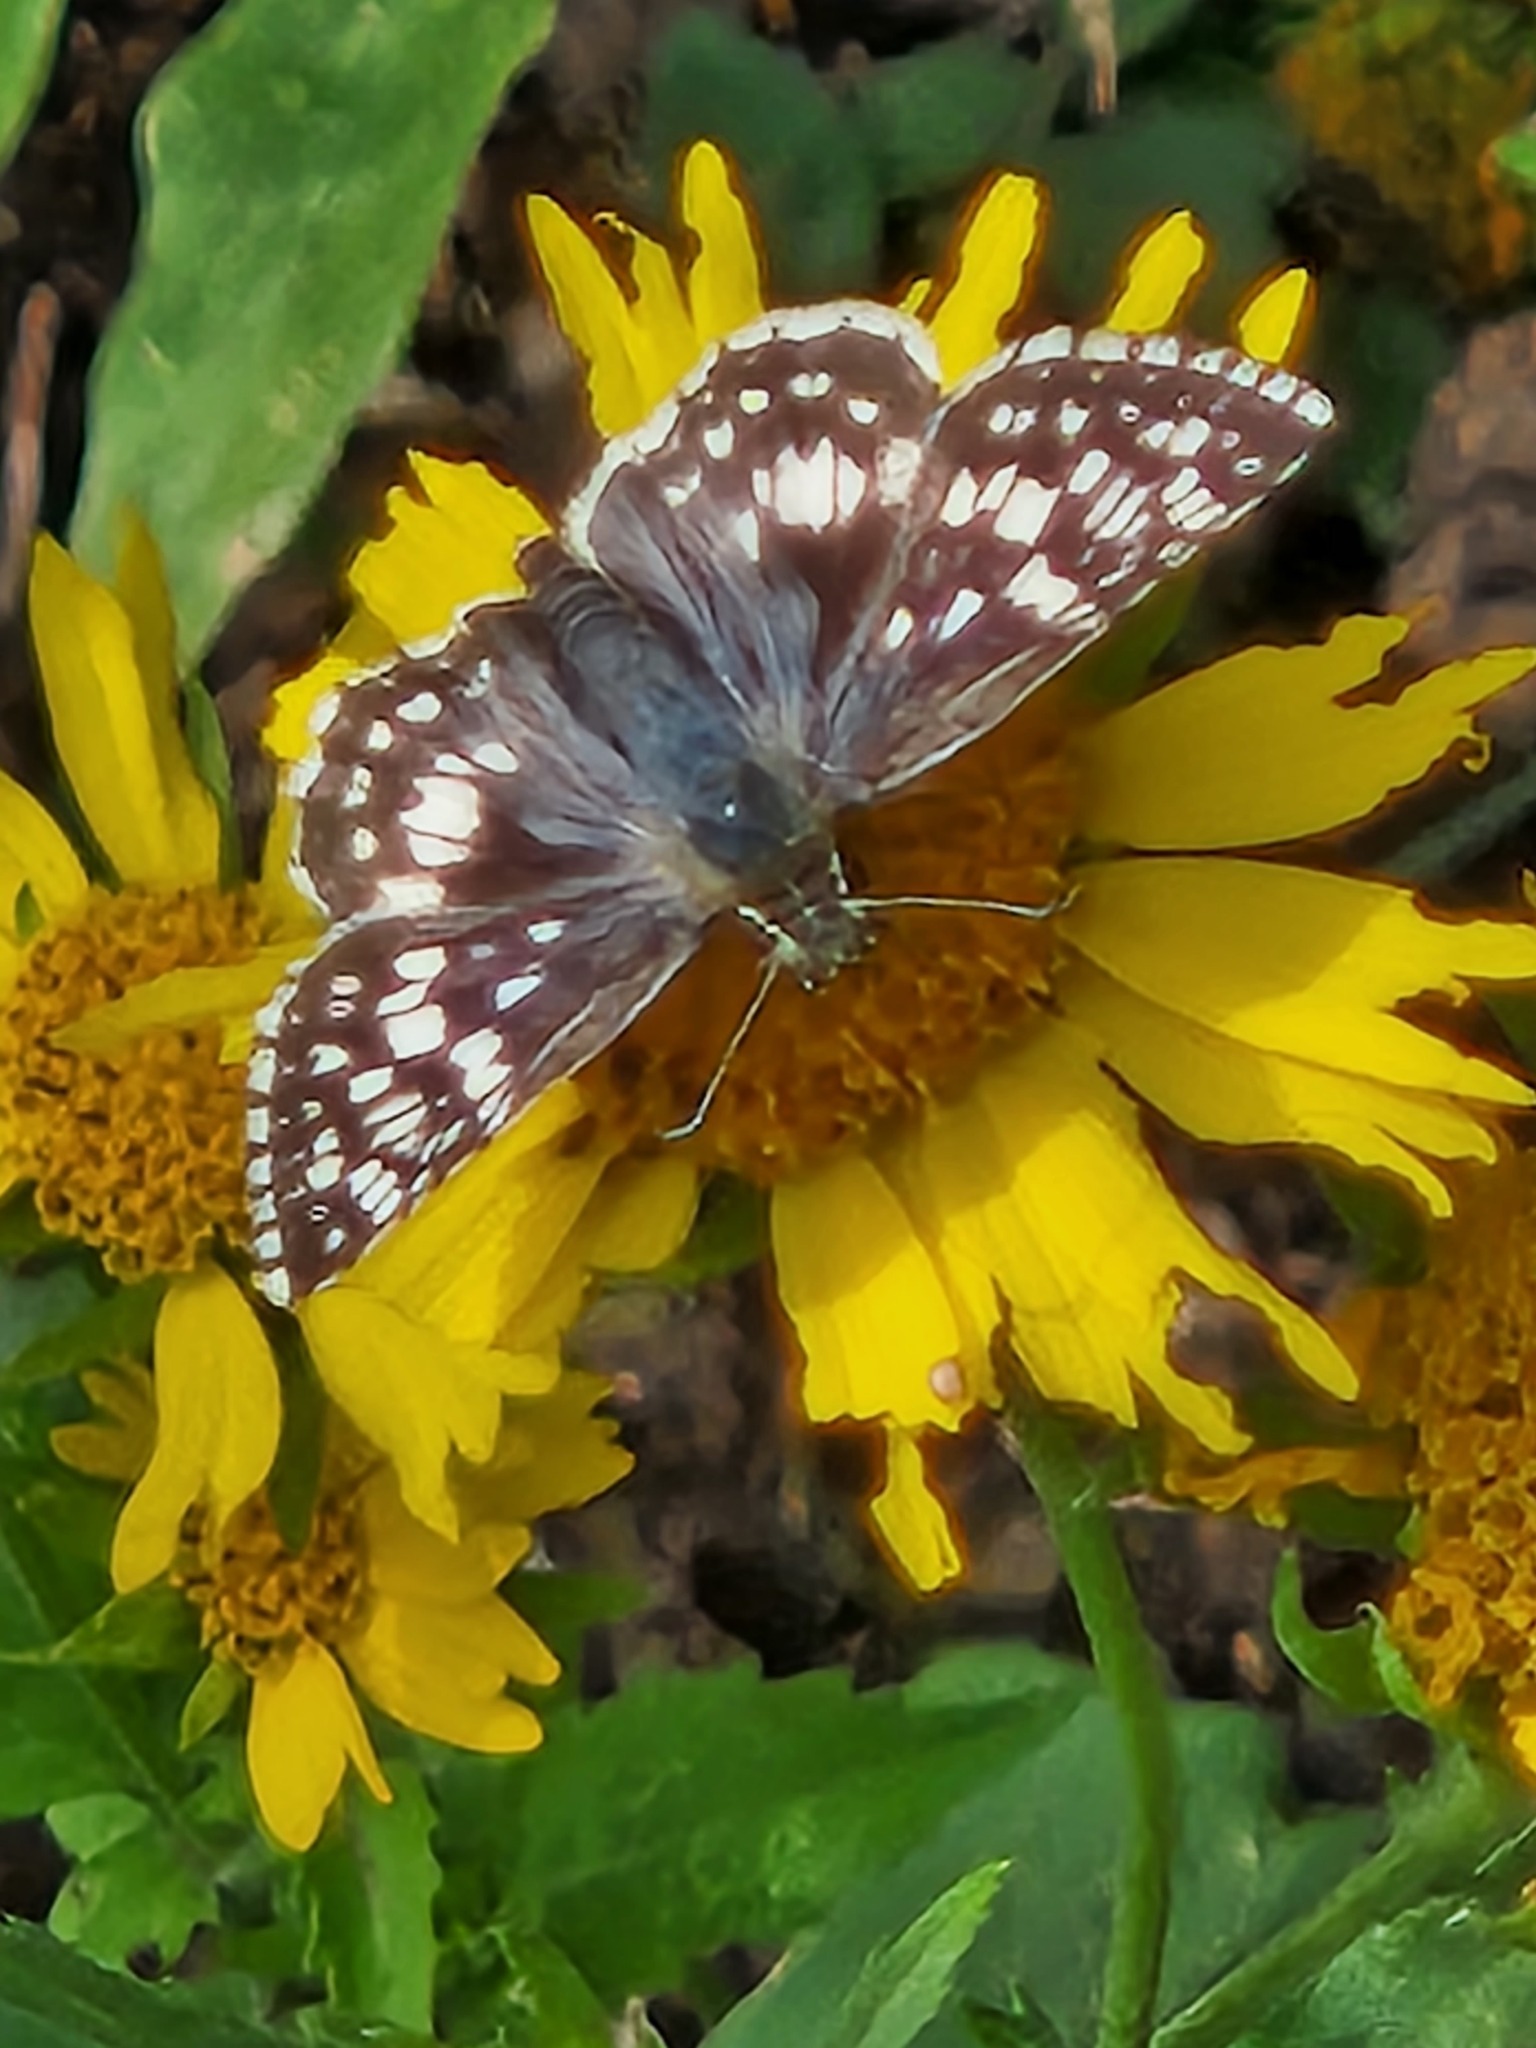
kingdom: Animalia
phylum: Arthropoda
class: Insecta
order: Lepidoptera
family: Hesperiidae
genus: Burnsius
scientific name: Burnsius
